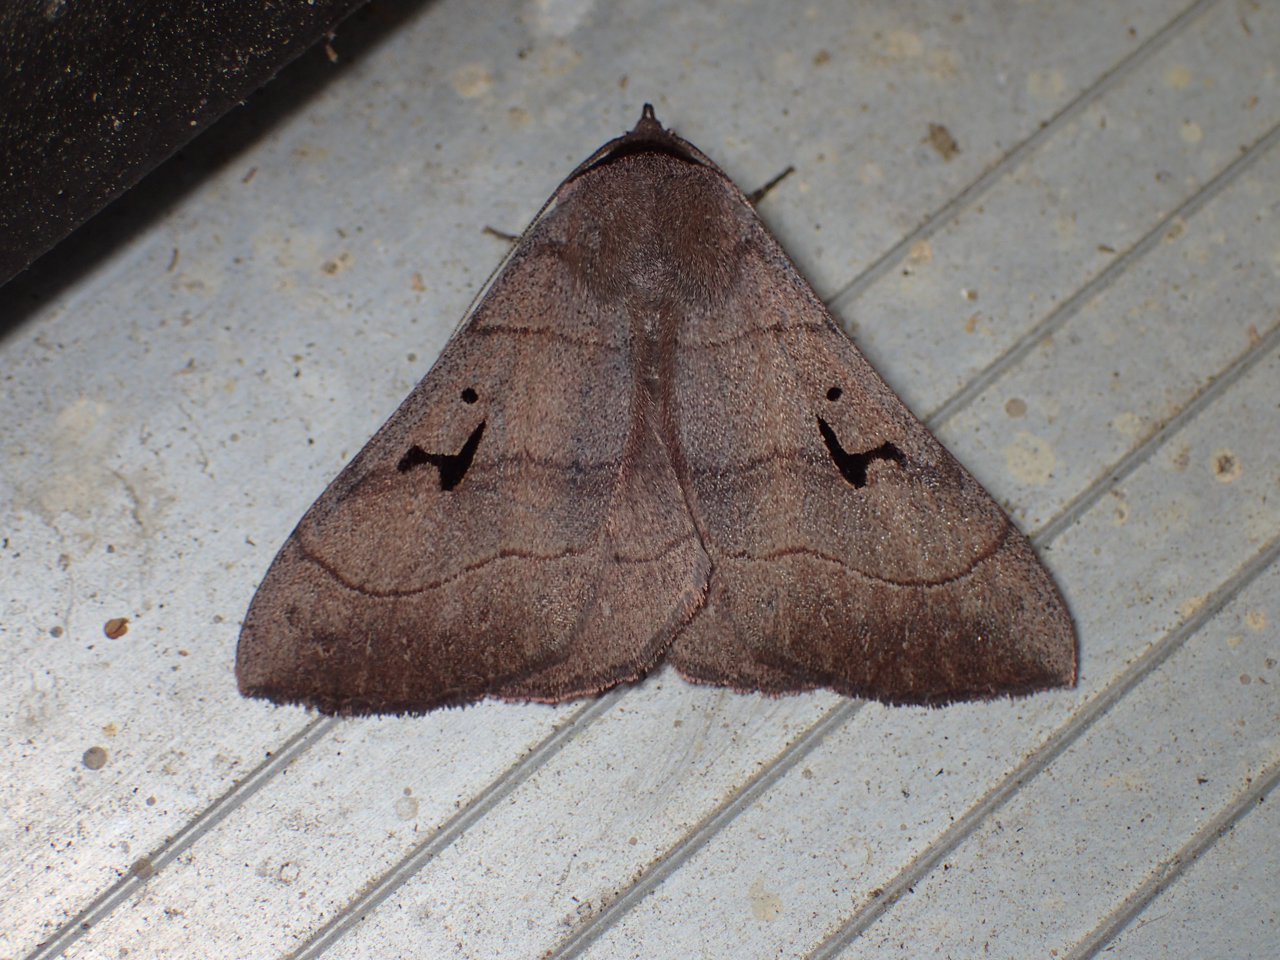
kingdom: Animalia
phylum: Arthropoda
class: Insecta
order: Lepidoptera
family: Erebidae
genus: Panopoda
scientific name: Panopoda carneicosta
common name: Brown panopoda moth
